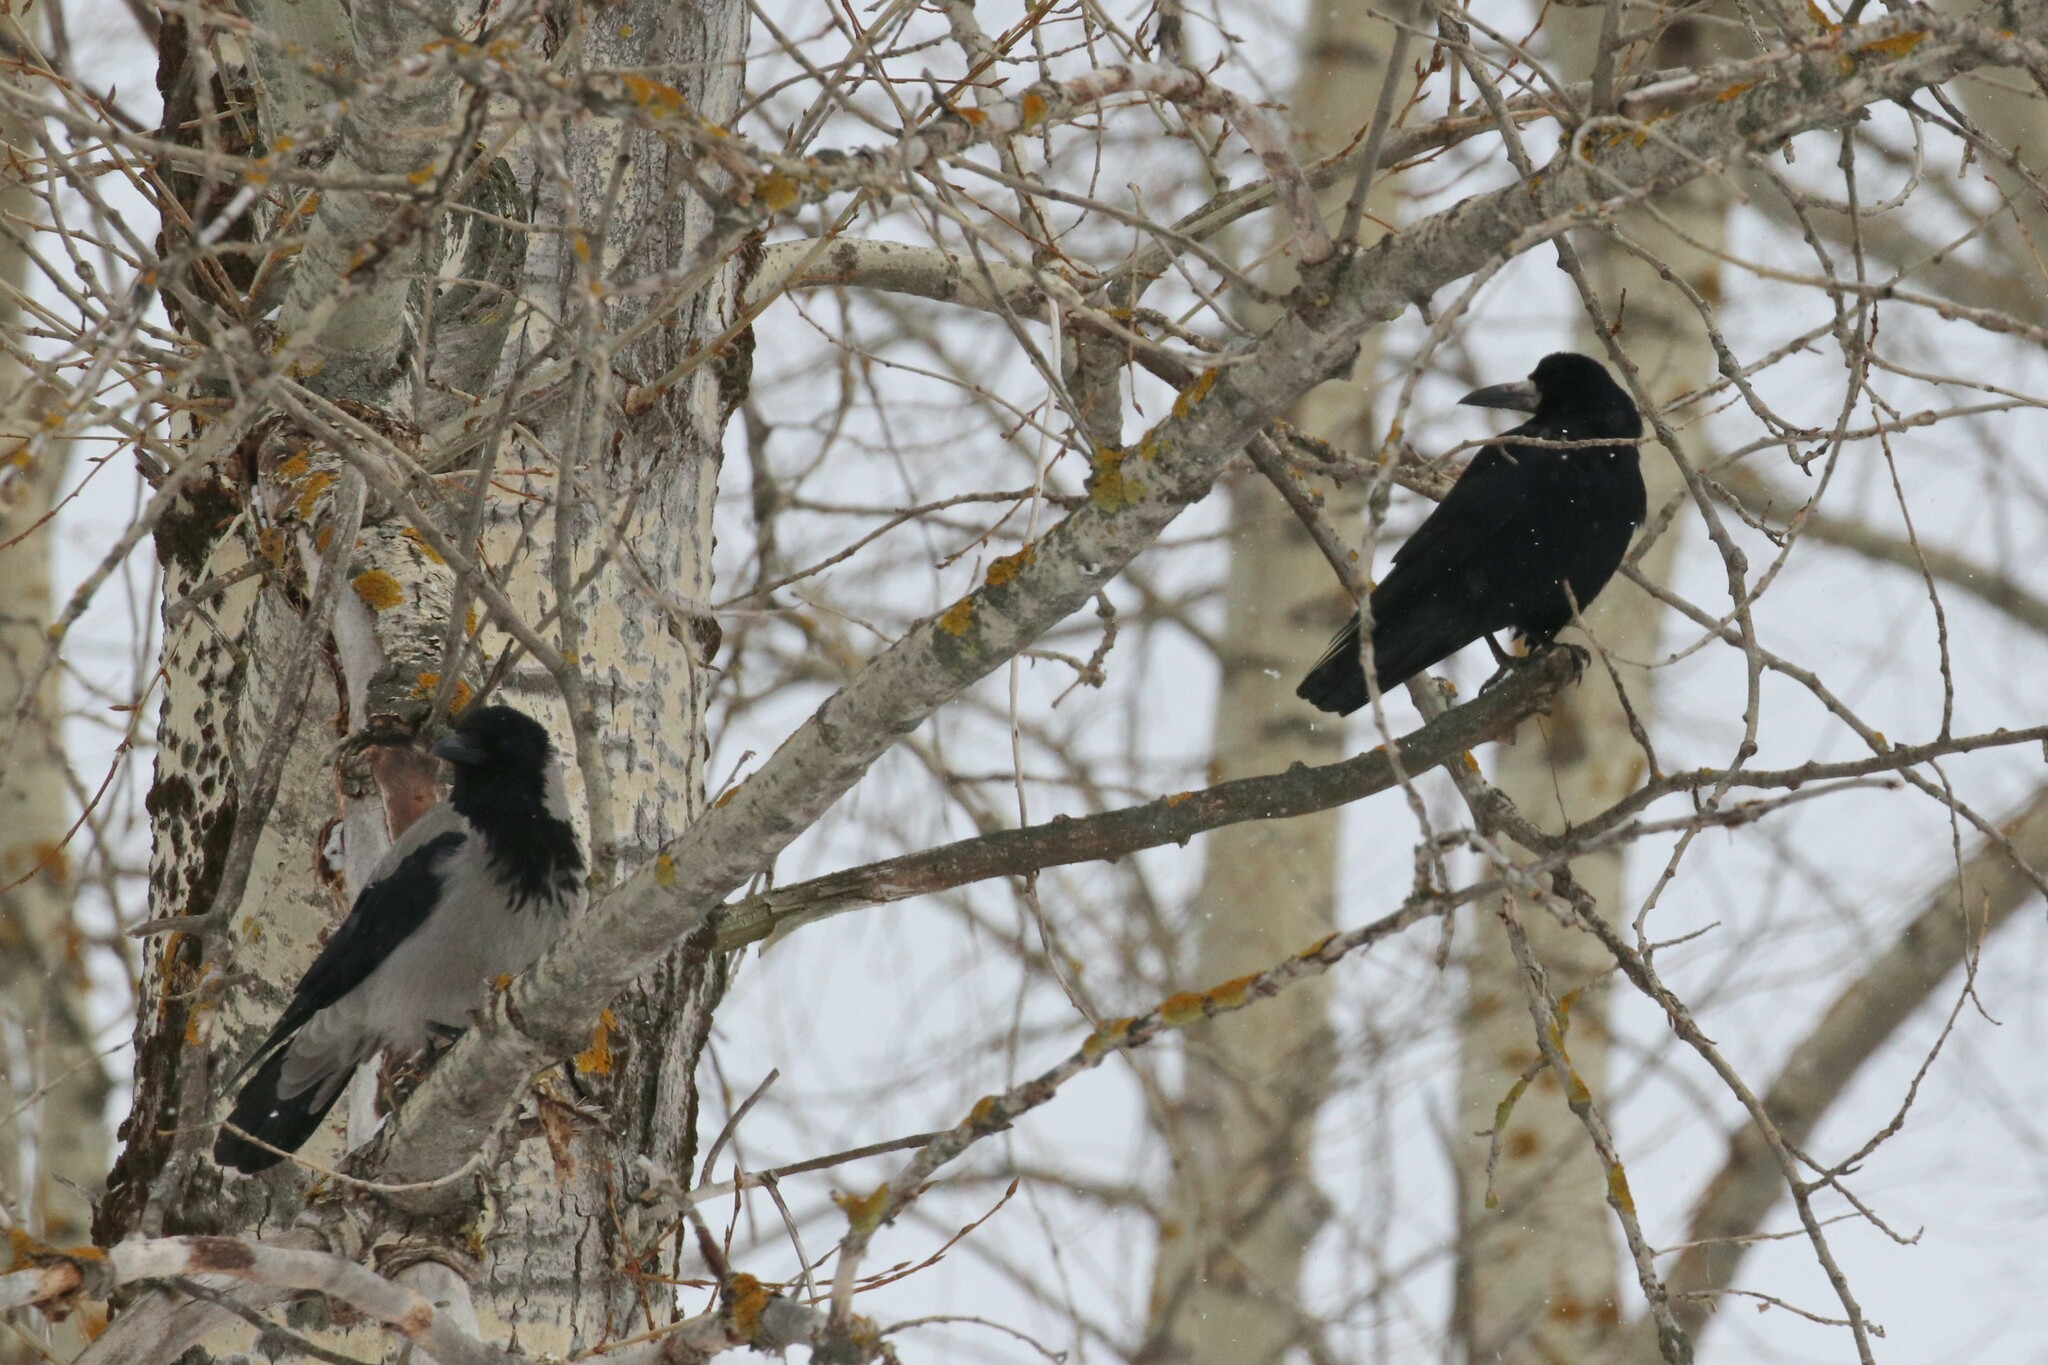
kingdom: Animalia
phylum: Chordata
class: Aves
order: Passeriformes
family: Corvidae
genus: Corvus
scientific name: Corvus cornix
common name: Hooded crow
